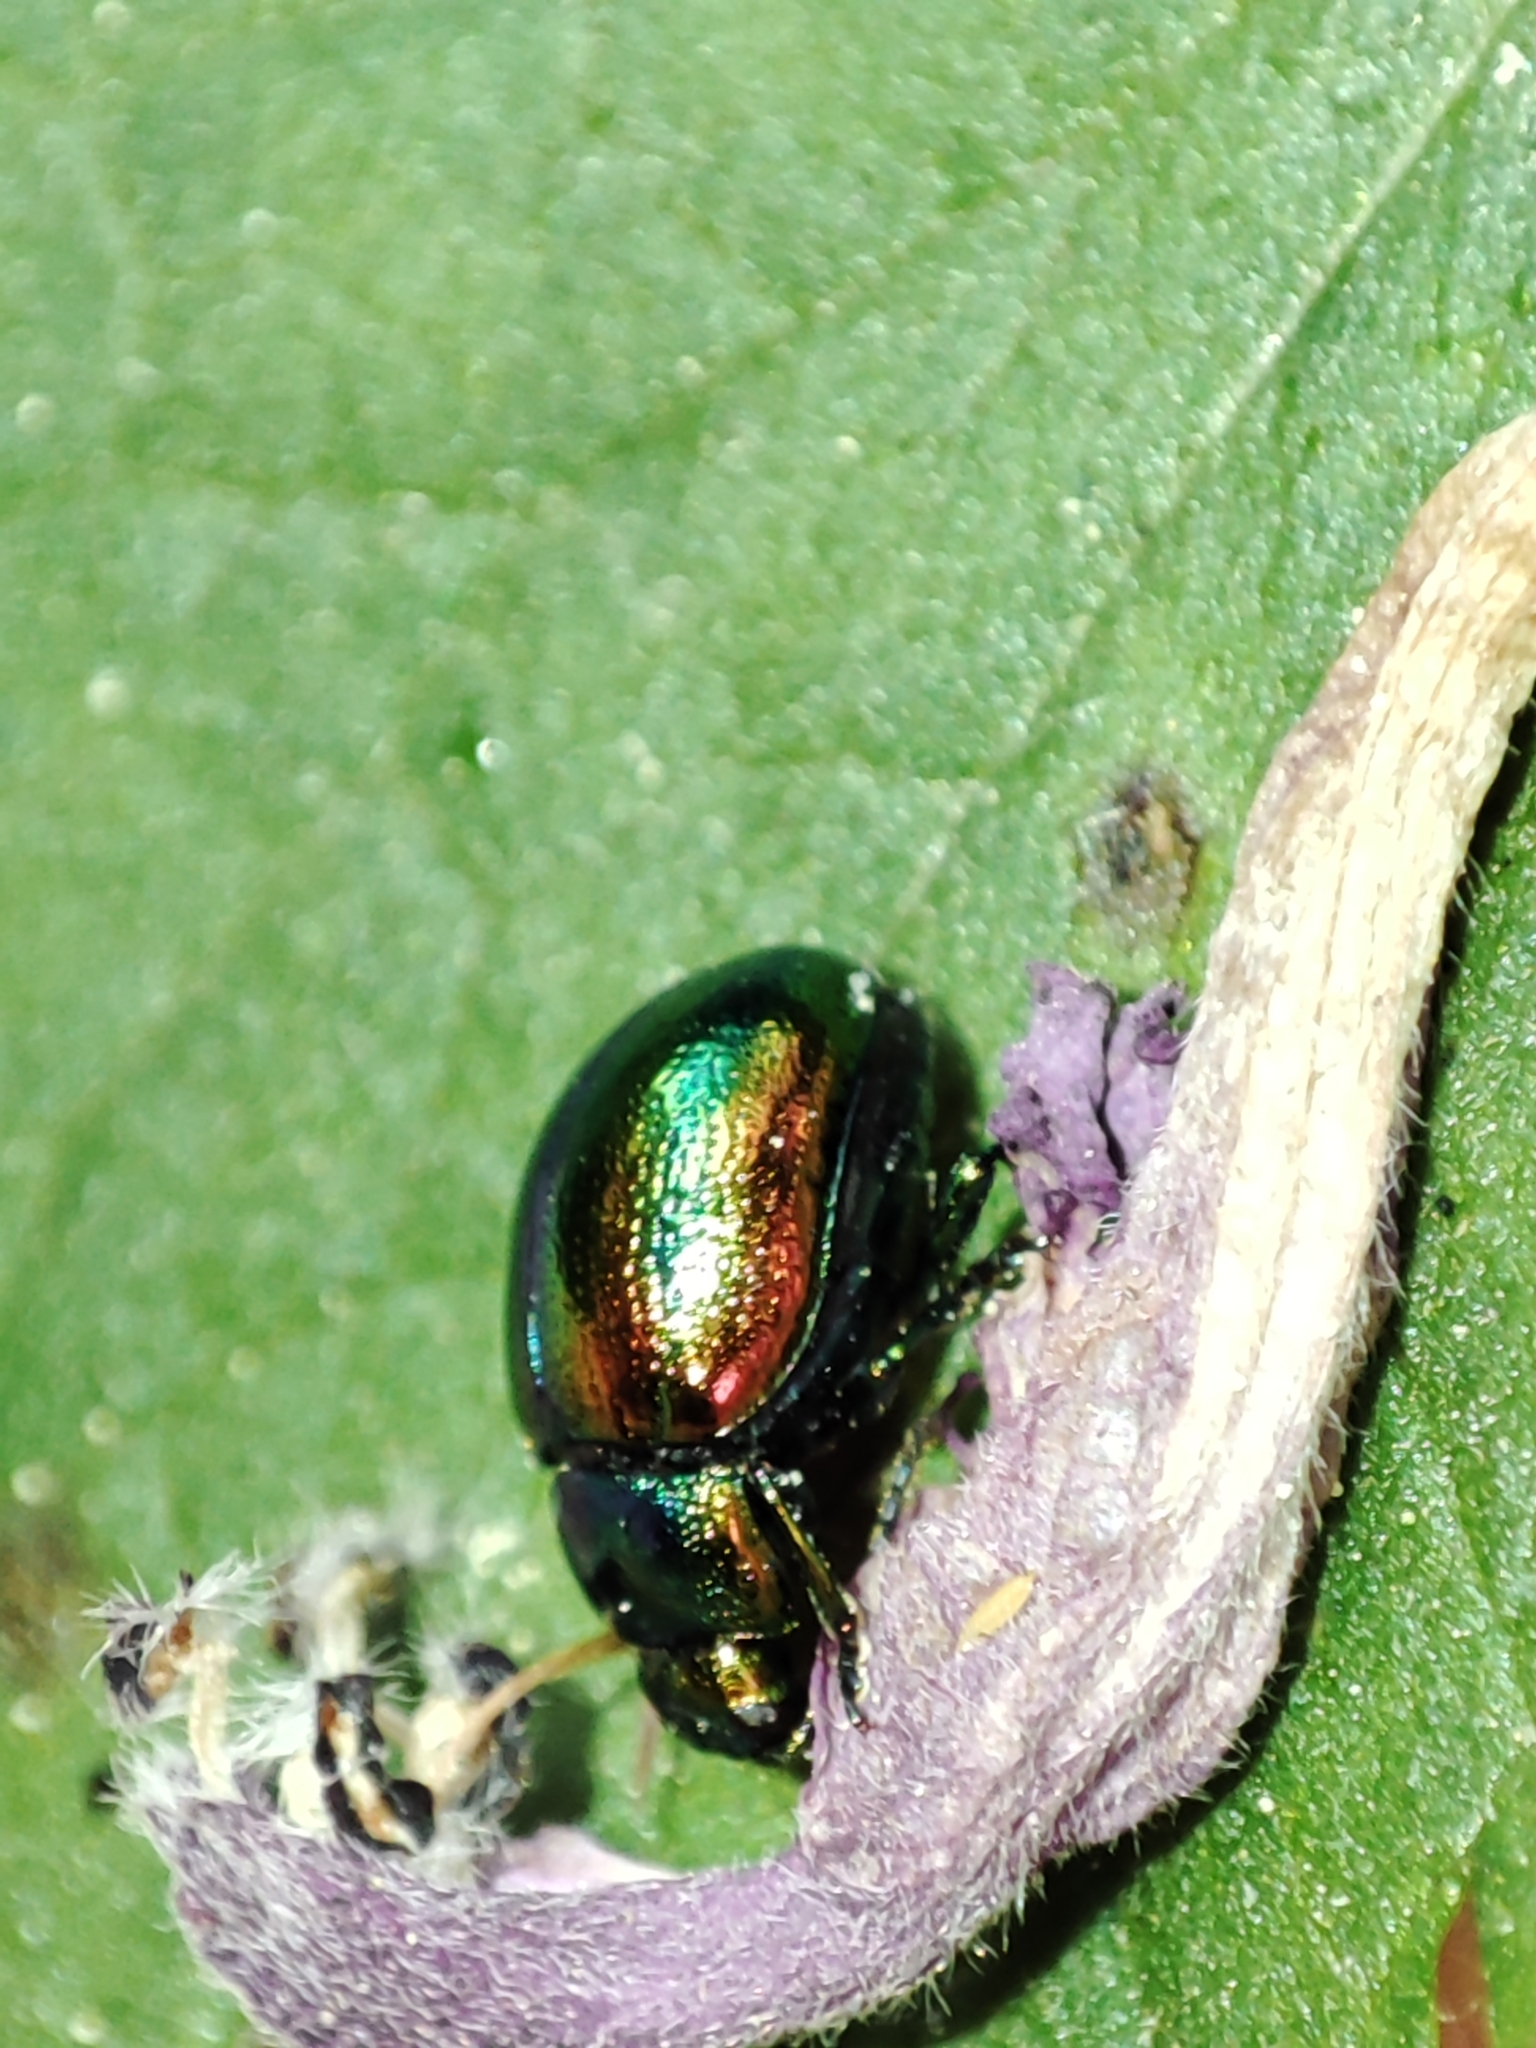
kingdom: Animalia
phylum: Arthropoda
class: Insecta
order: Coleoptera
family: Chrysomelidae
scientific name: Chrysomelidae
